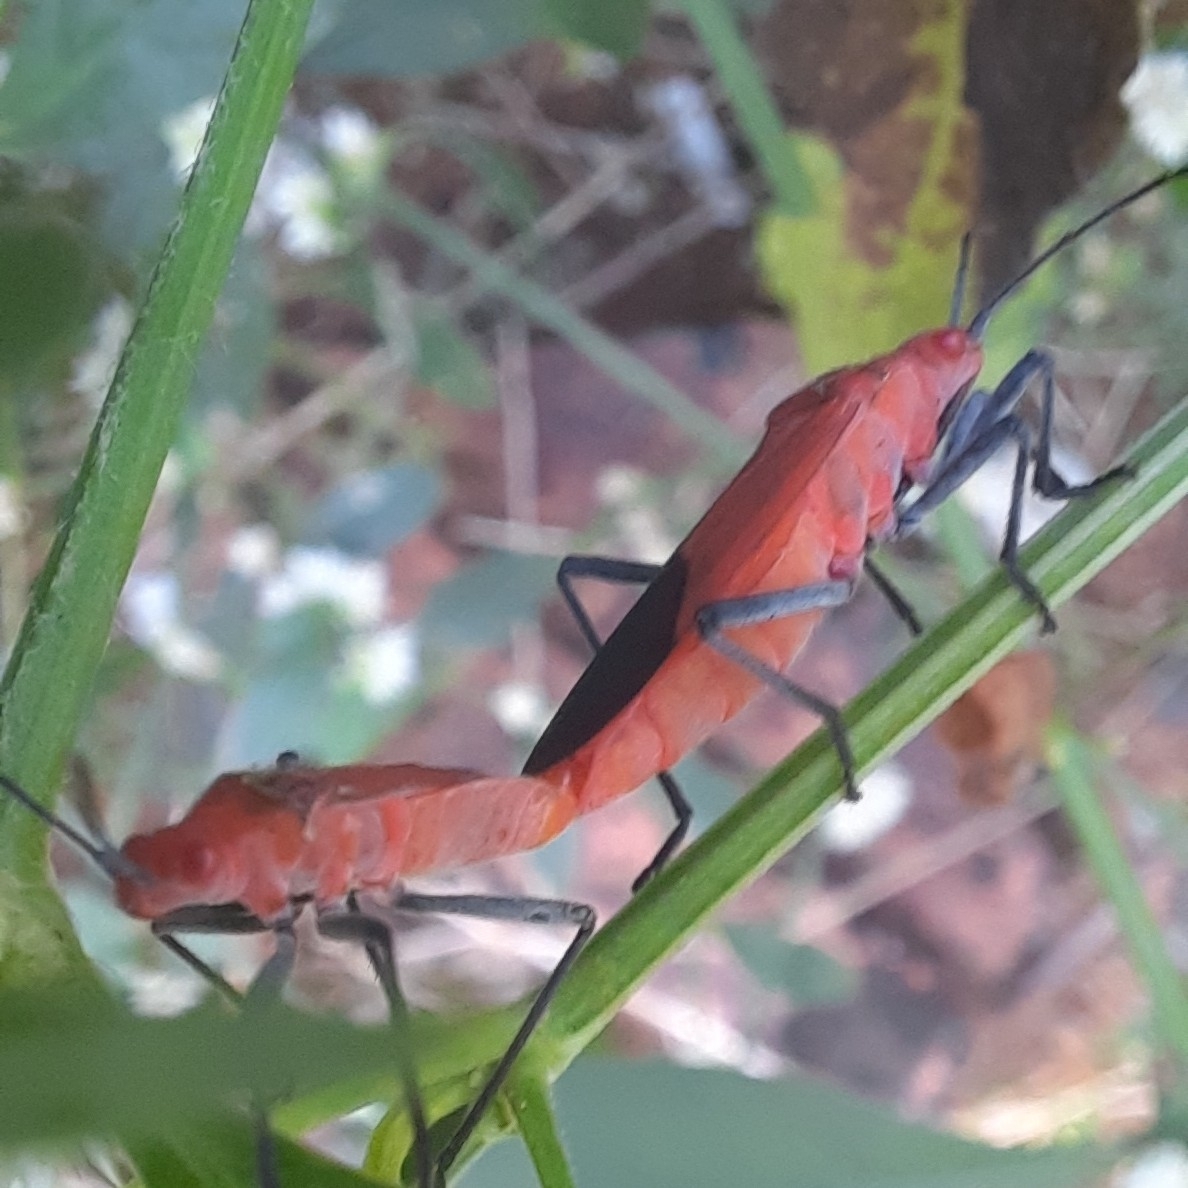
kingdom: Animalia
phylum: Arthropoda
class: Insecta
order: Hemiptera
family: Rhopalidae
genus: Leptocoris
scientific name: Leptocoris augur
